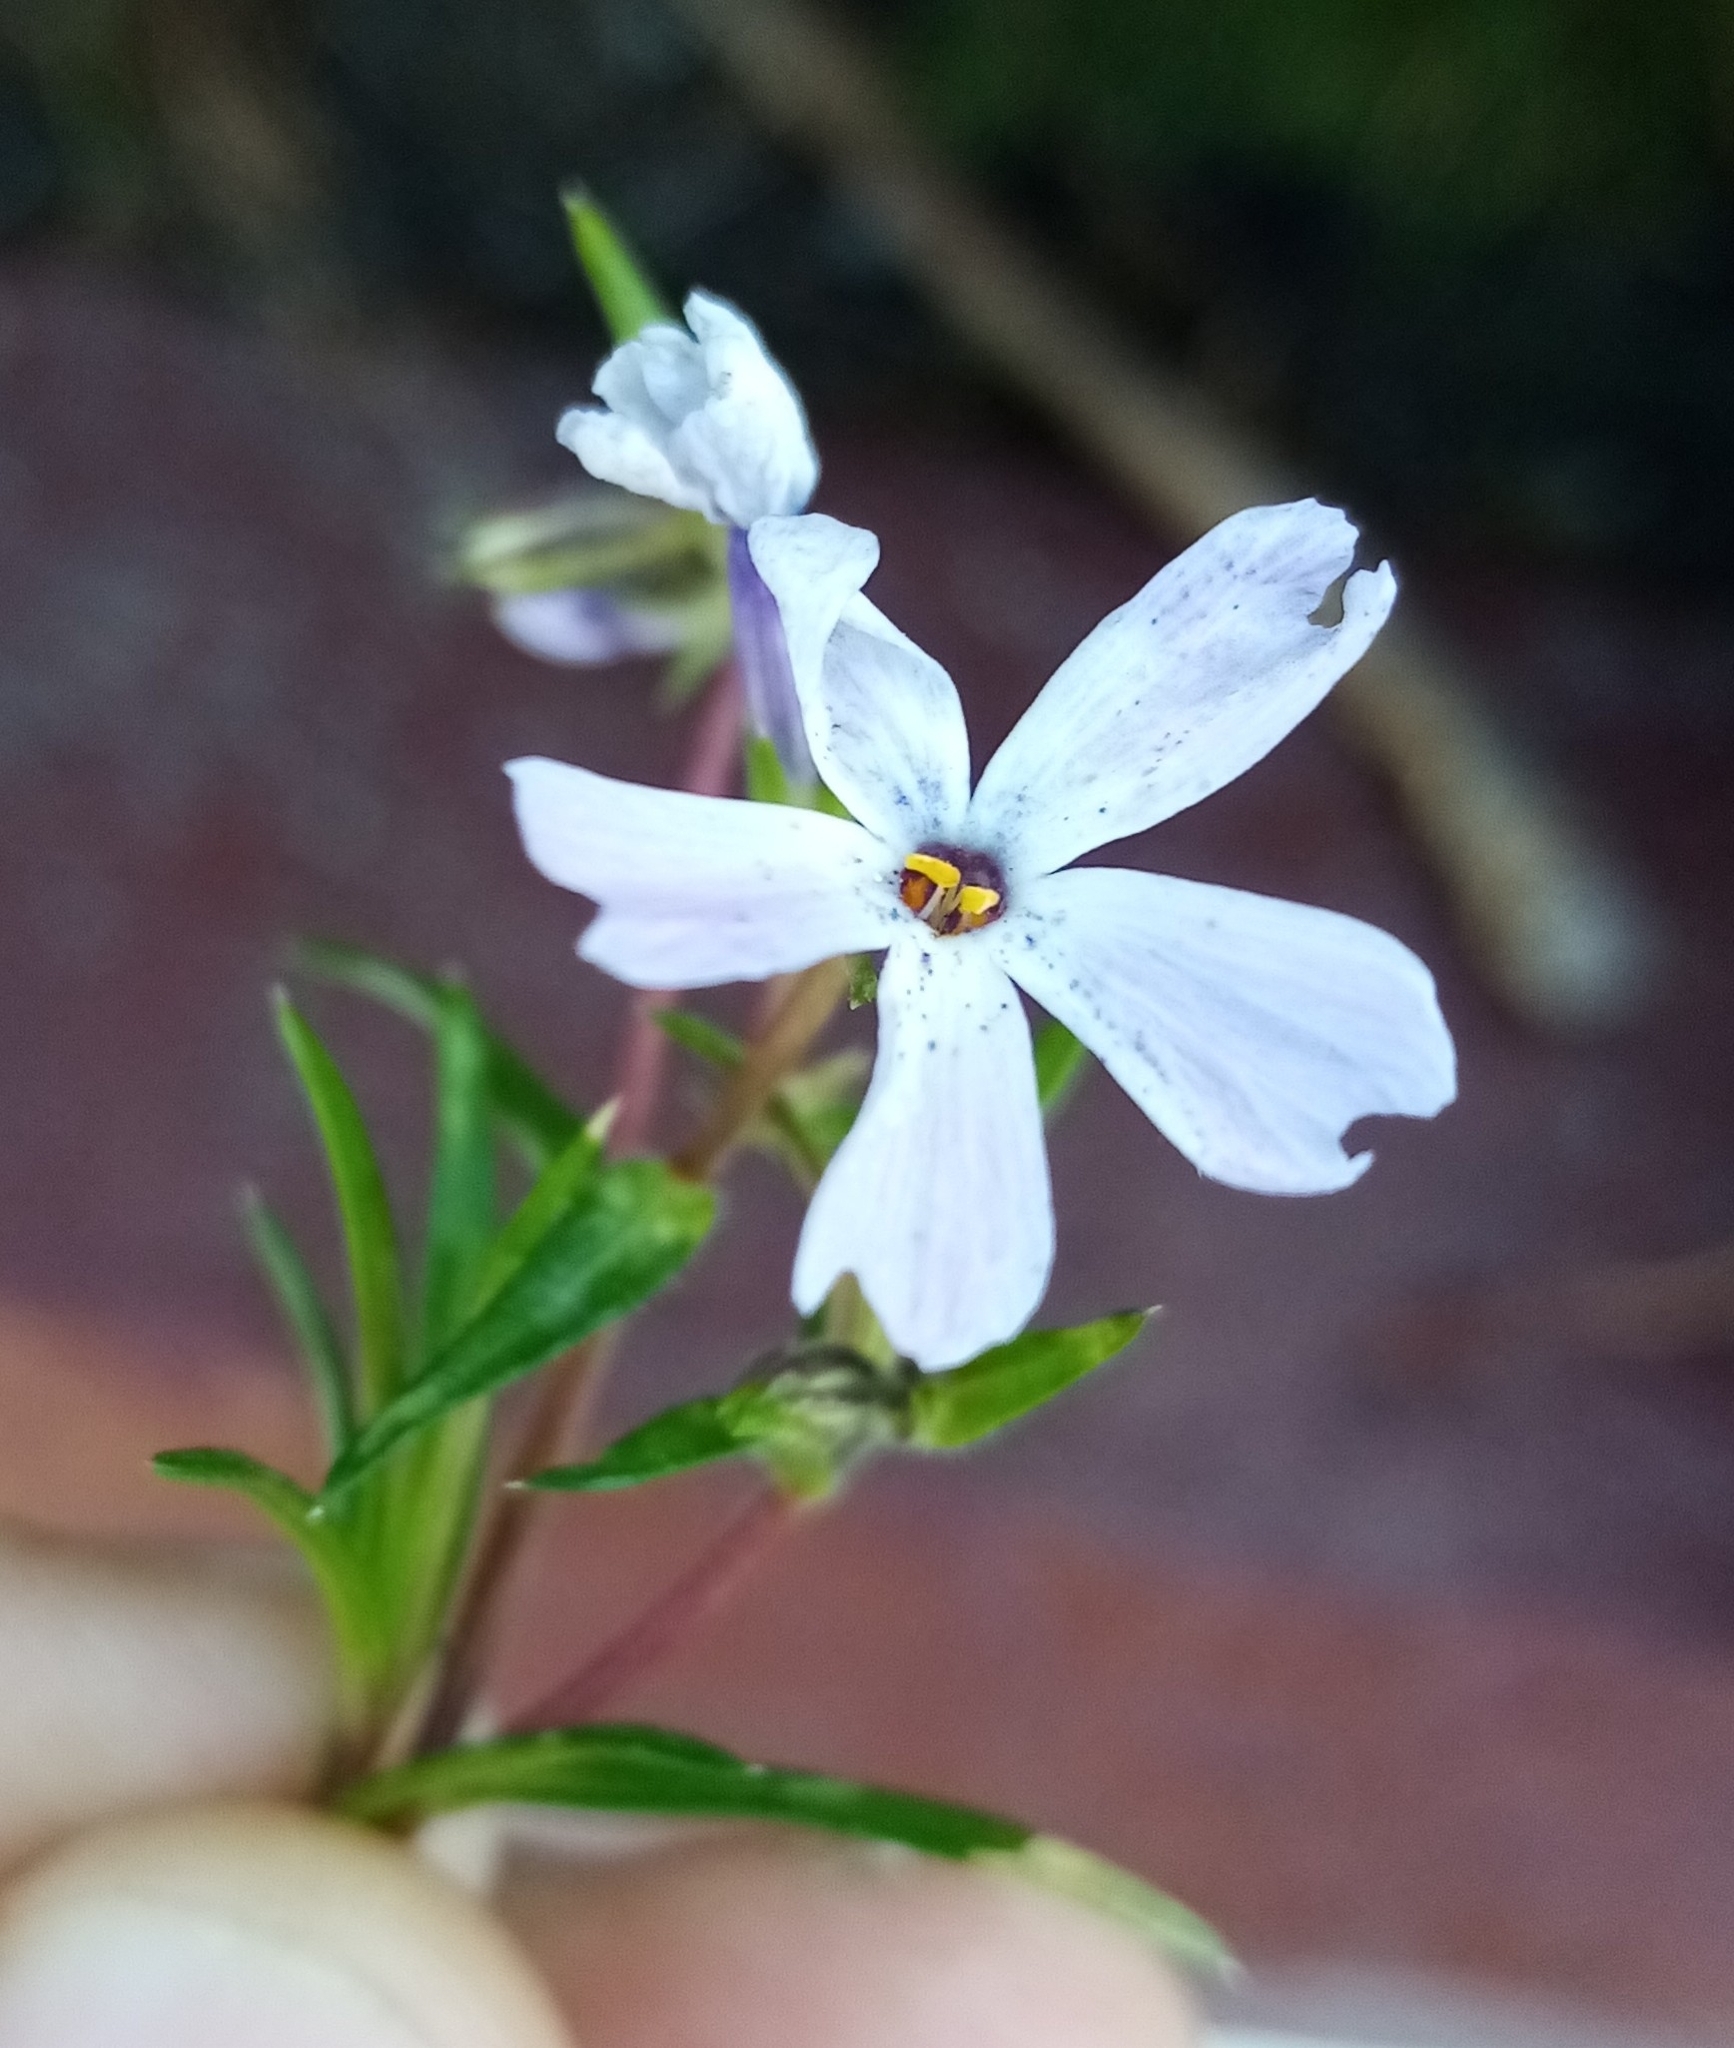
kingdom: Plantae
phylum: Tracheophyta
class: Magnoliopsida
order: Ericales
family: Polemoniaceae
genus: Phlox
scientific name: Phlox subulata
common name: Moss phlox
